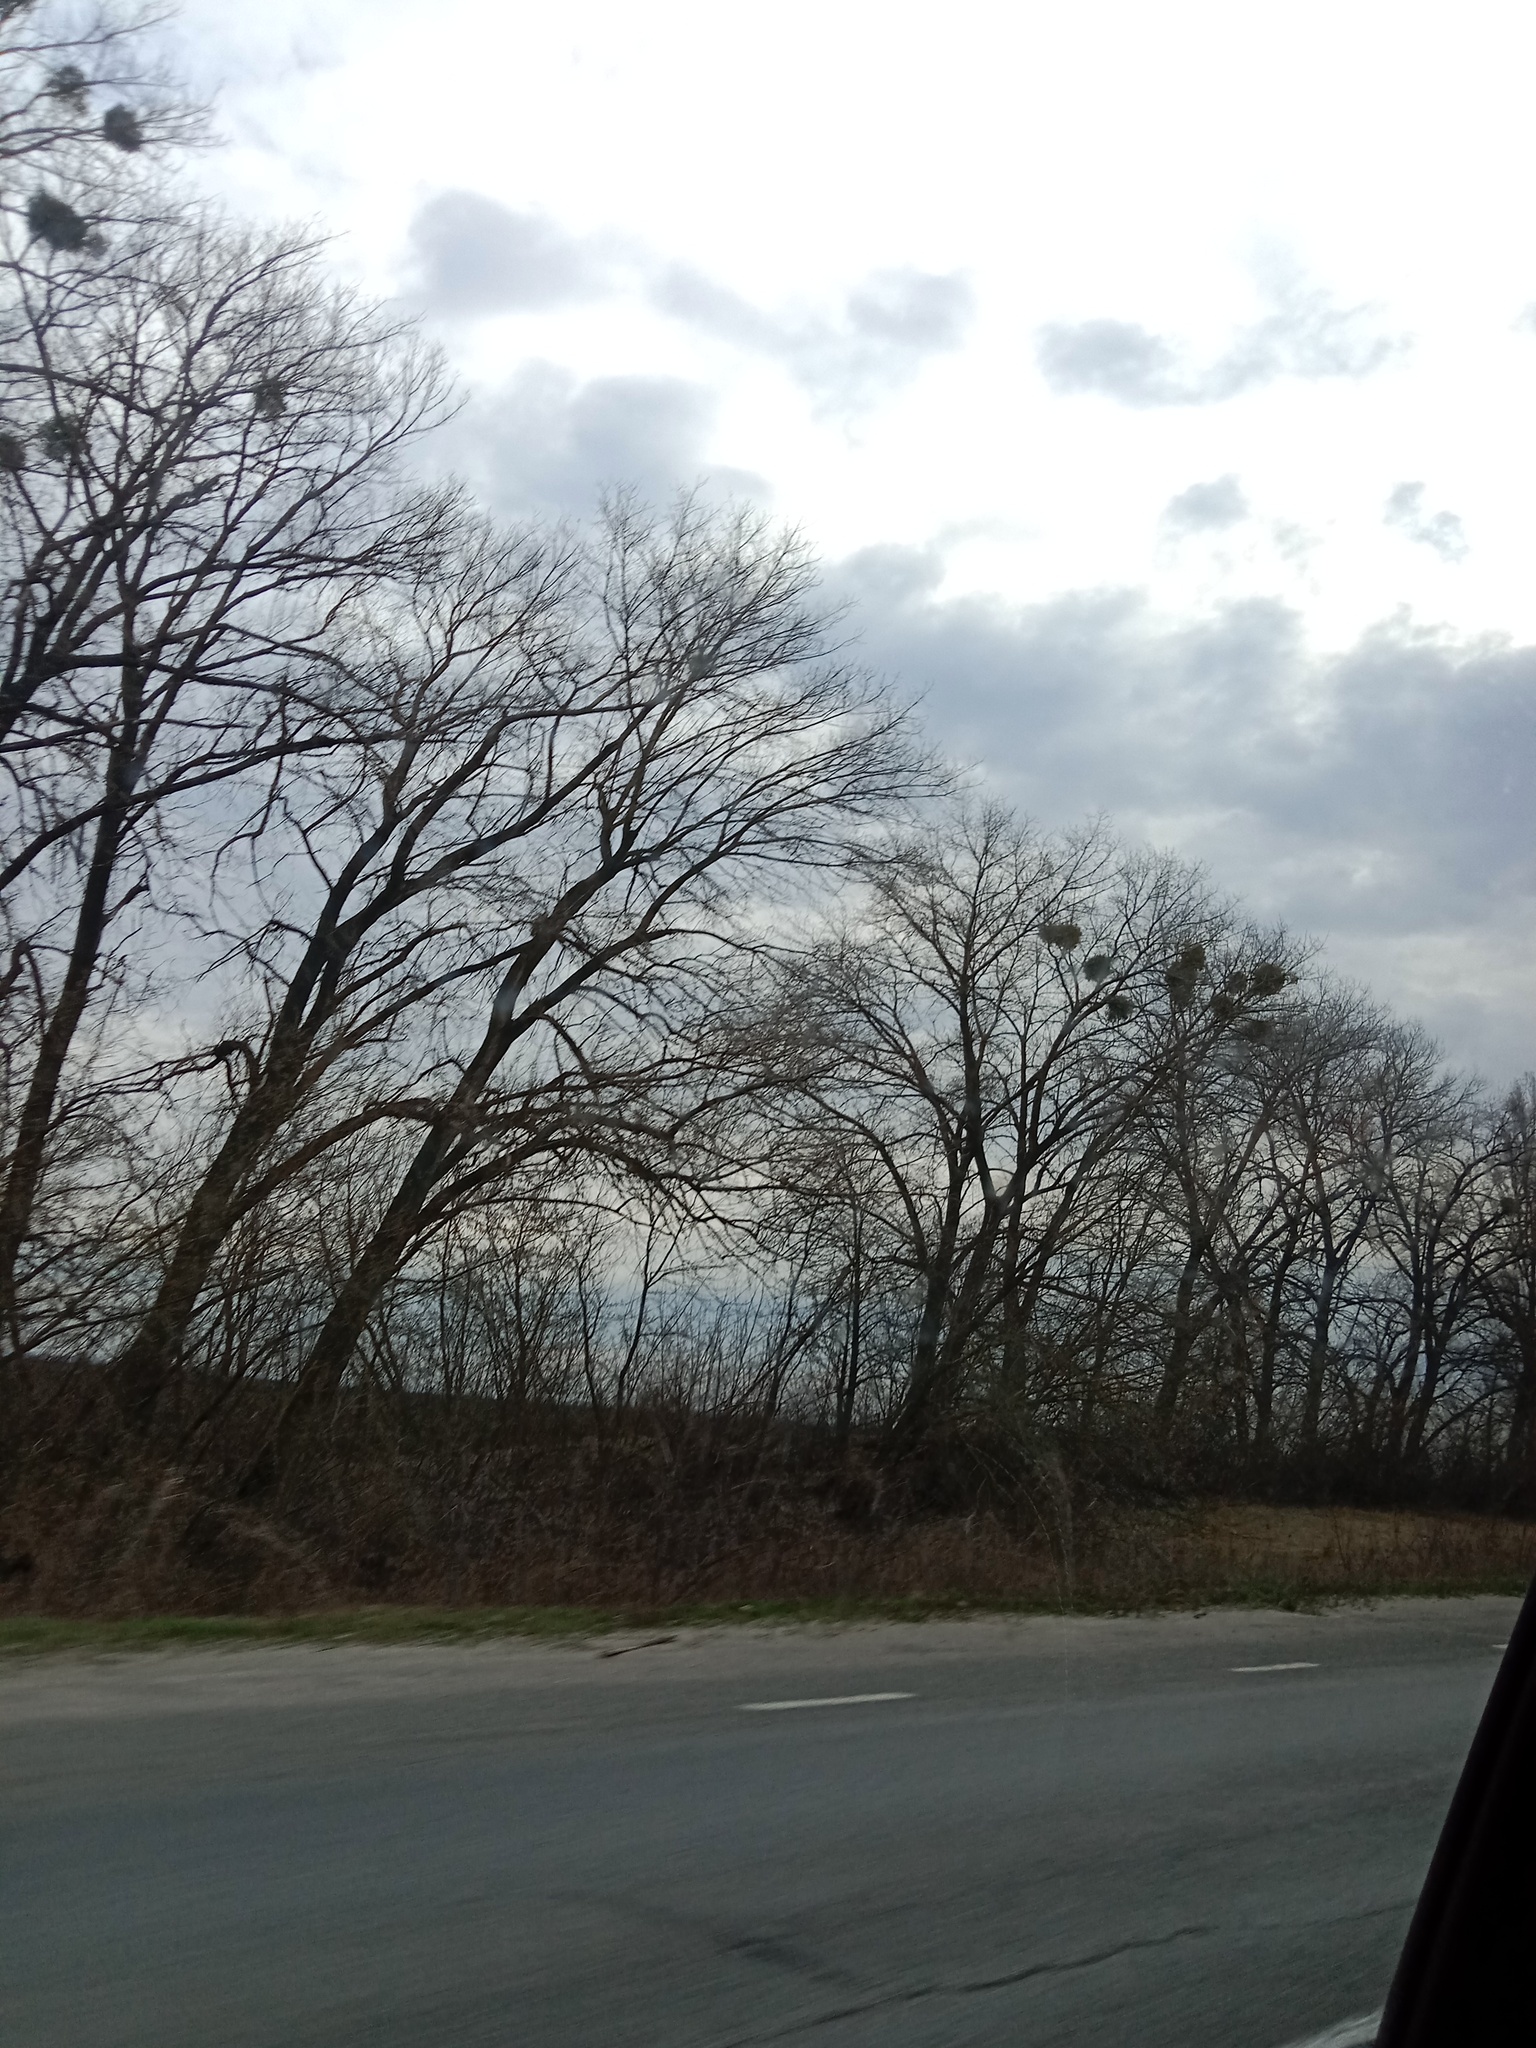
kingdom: Plantae
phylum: Tracheophyta
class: Magnoliopsida
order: Santalales
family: Viscaceae
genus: Viscum
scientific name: Viscum album
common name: Mistletoe
